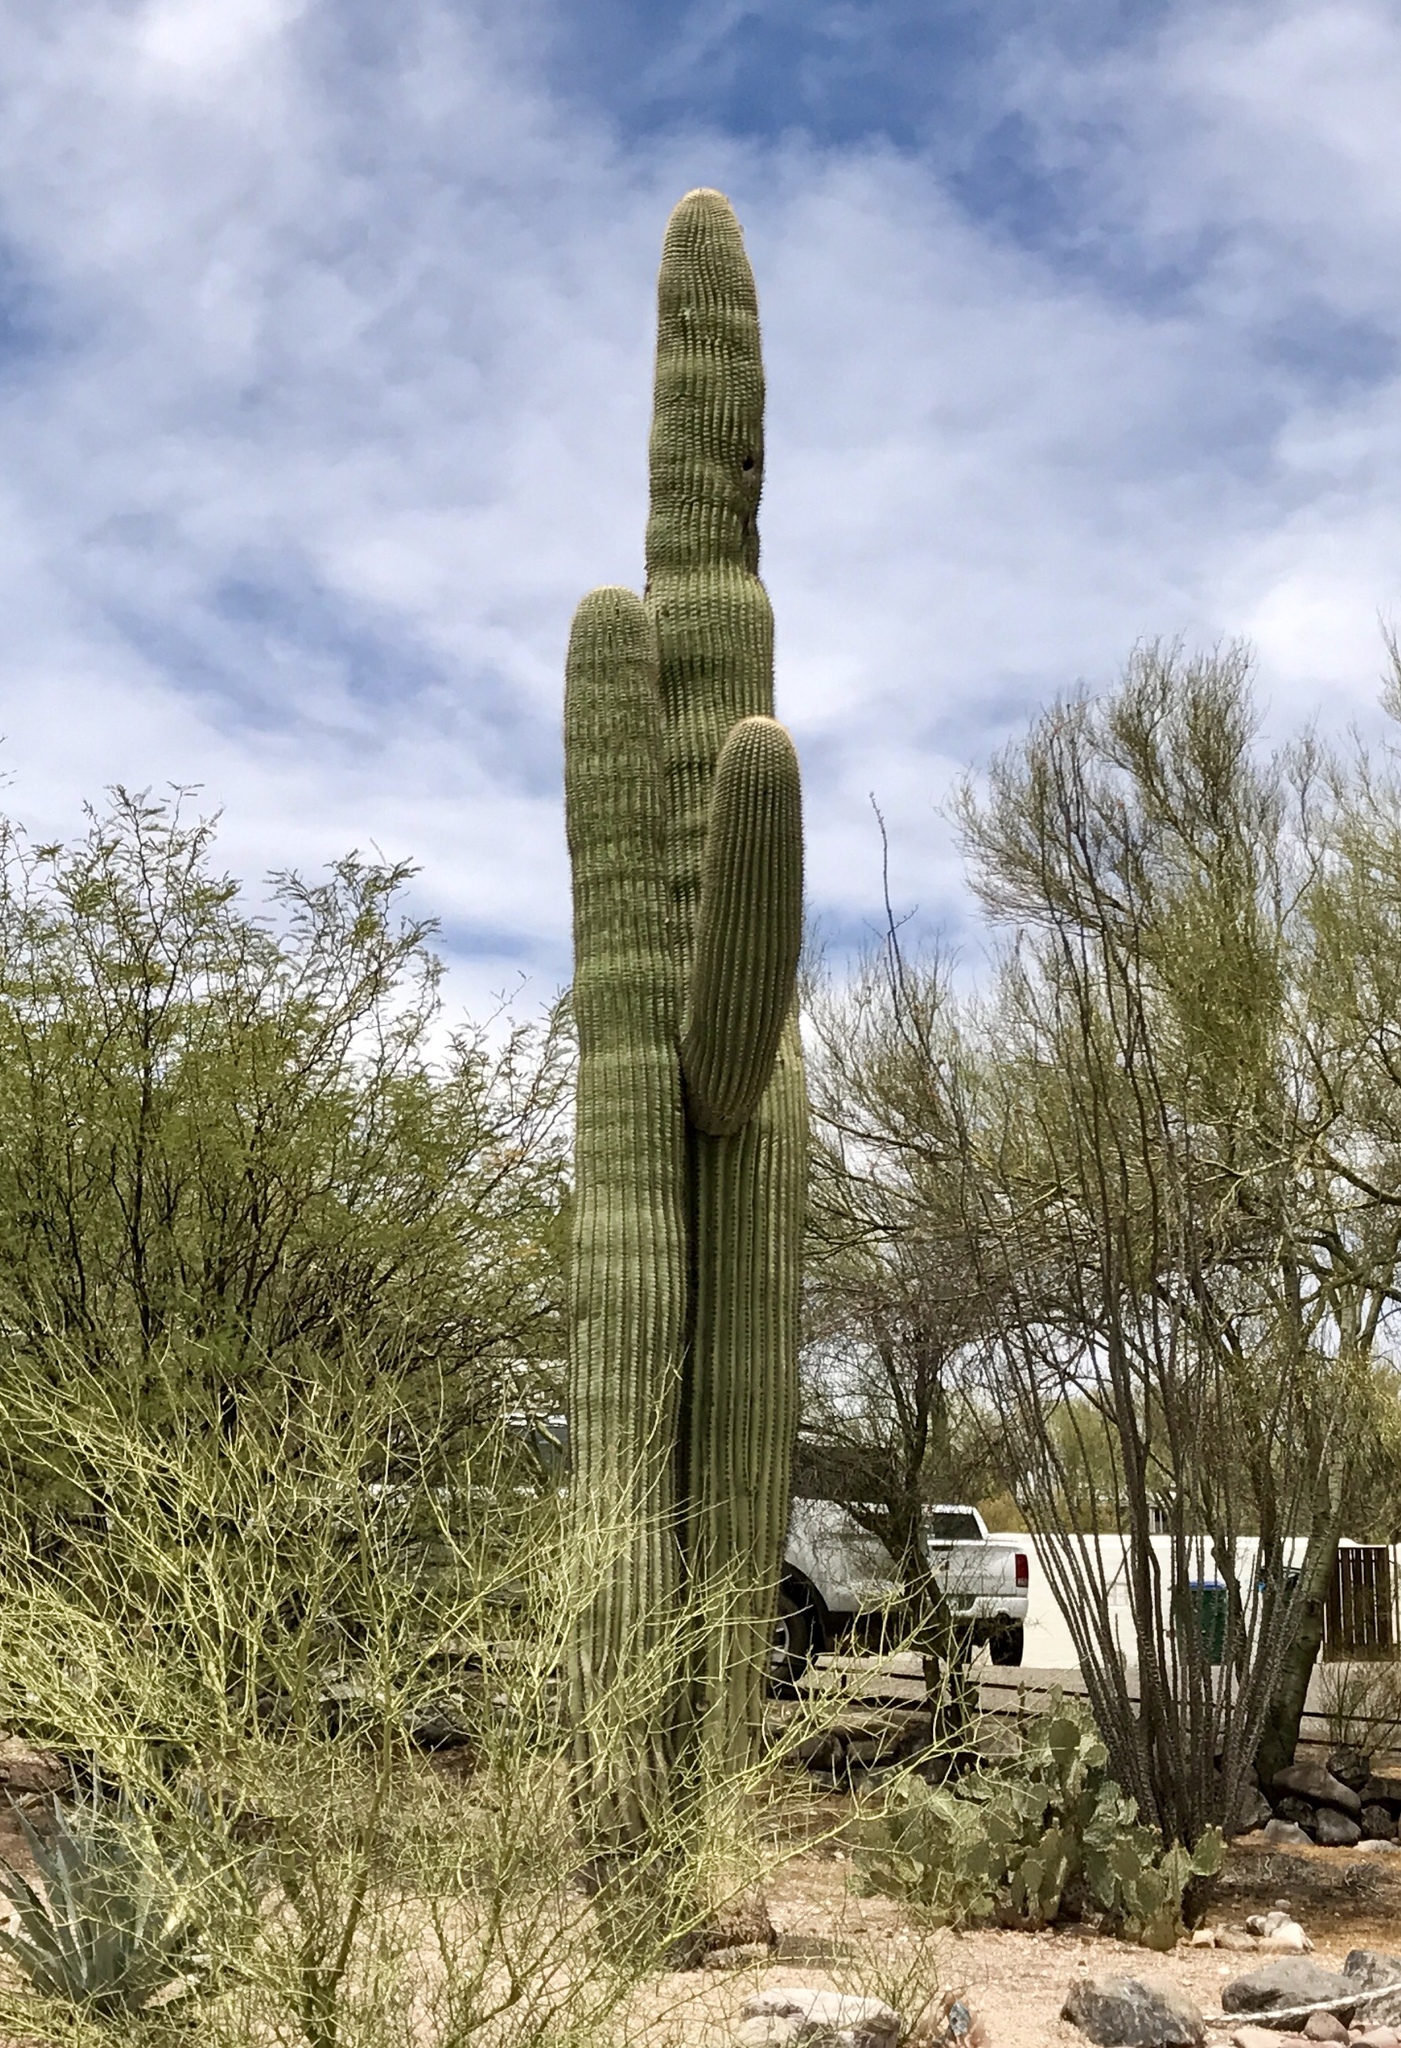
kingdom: Plantae
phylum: Tracheophyta
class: Magnoliopsida
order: Caryophyllales
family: Cactaceae
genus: Carnegiea
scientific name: Carnegiea gigantea
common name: Saguaro
